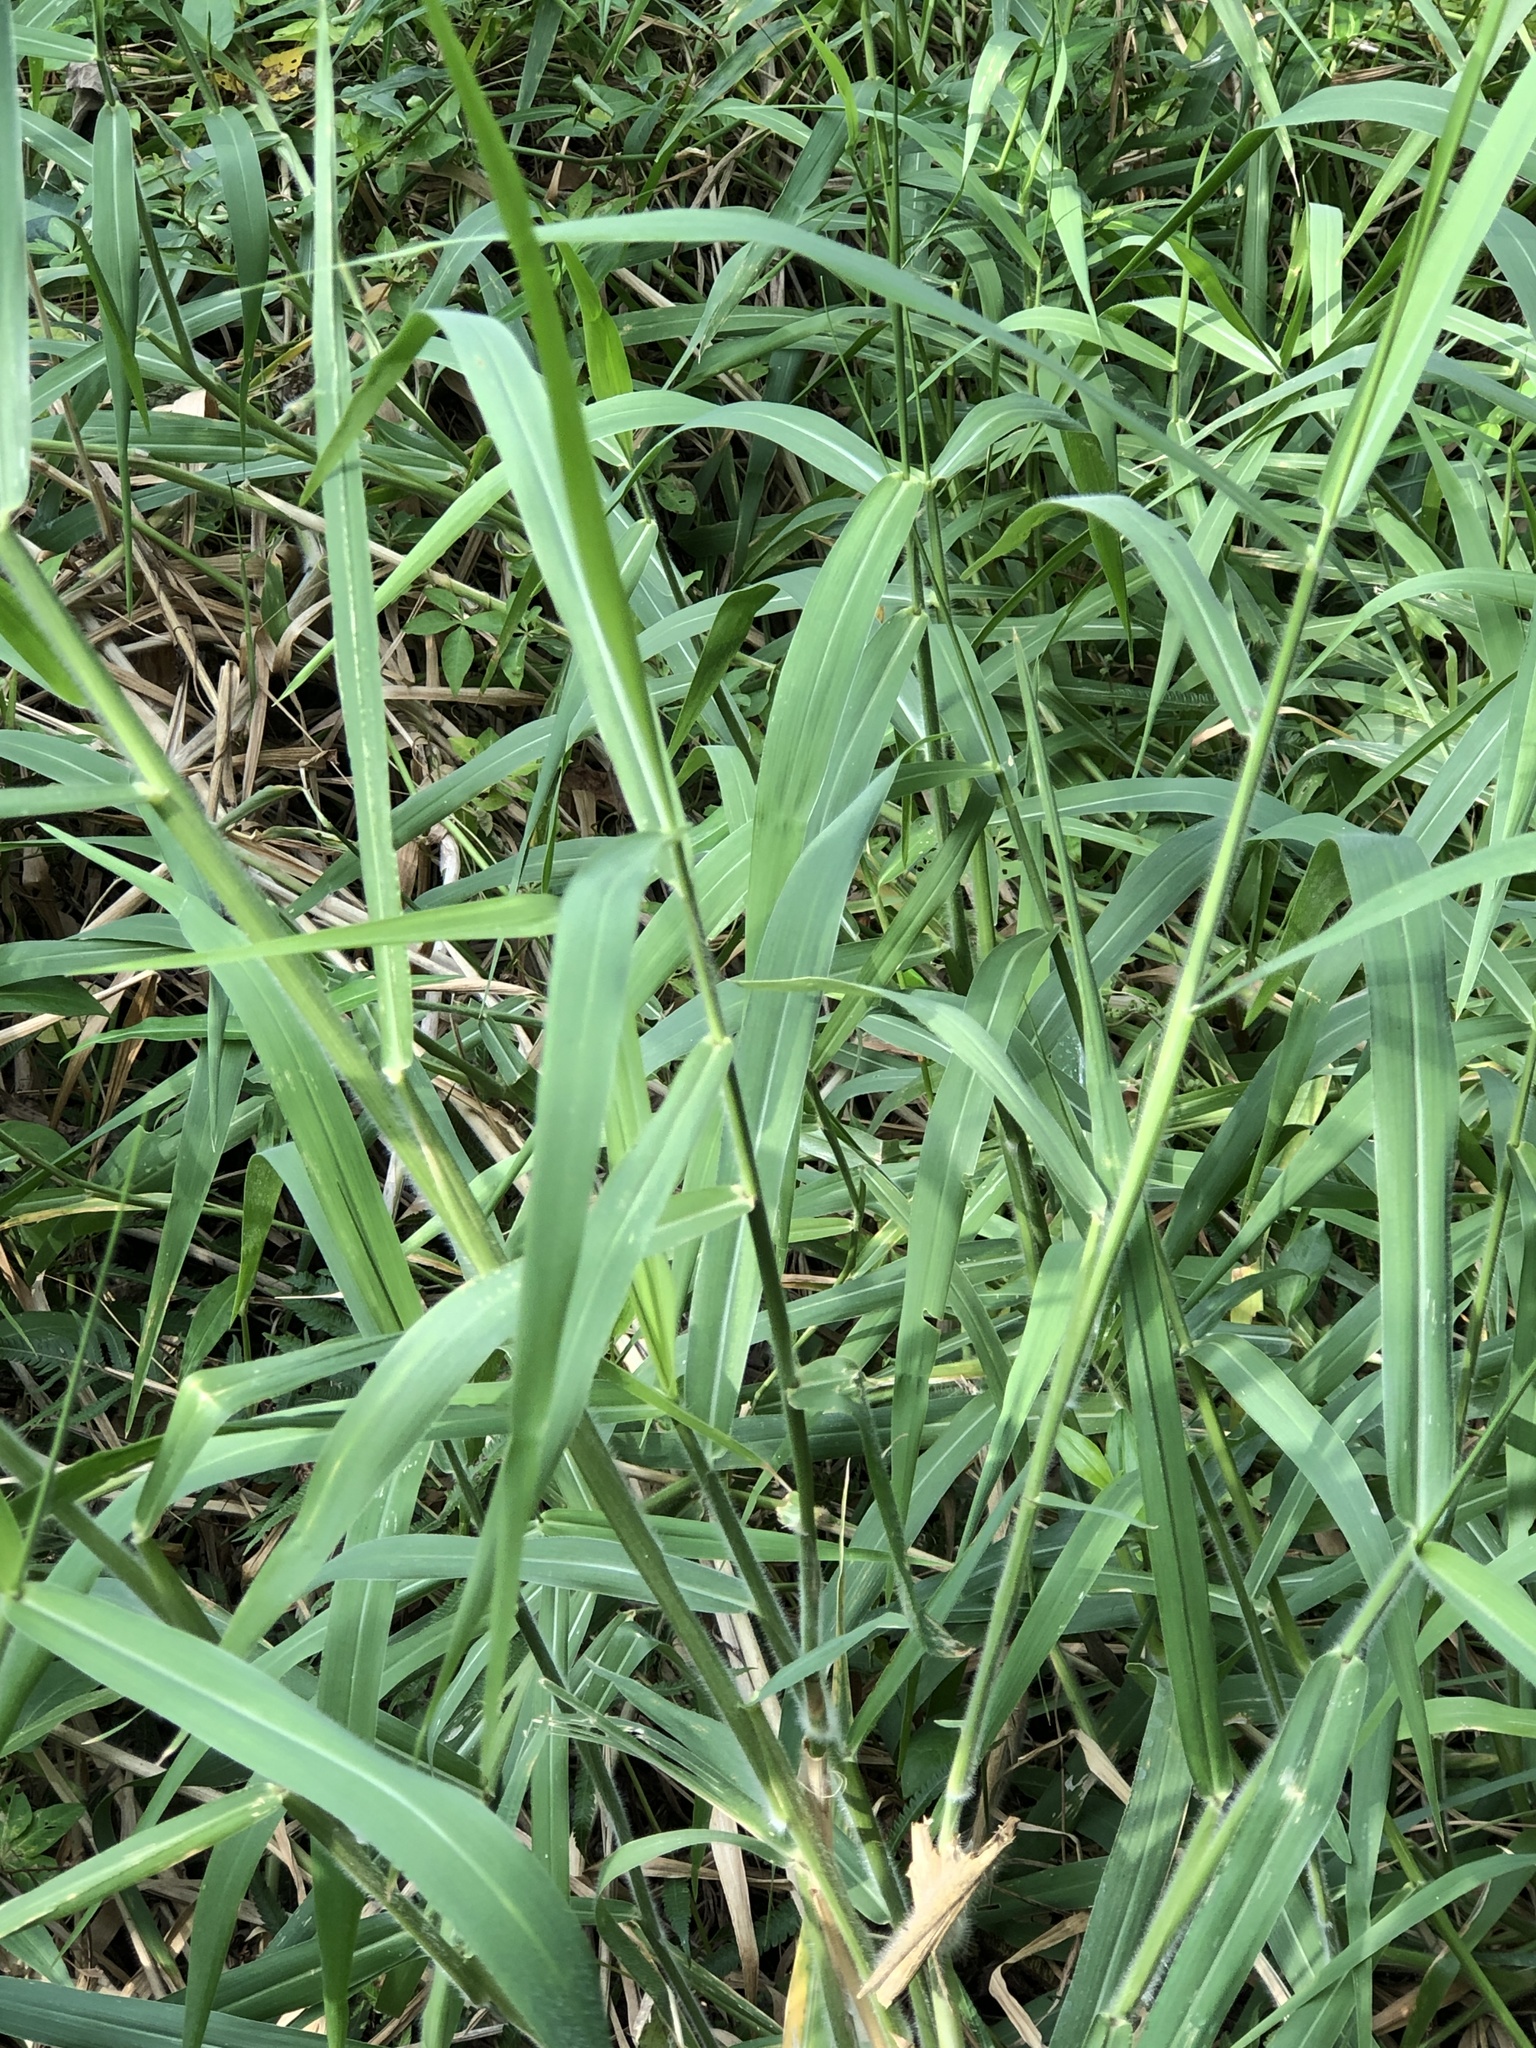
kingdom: Plantae
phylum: Tracheophyta
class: Liliopsida
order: Poales
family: Poaceae
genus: Urochloa
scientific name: Urochloa mutica
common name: Para grass
